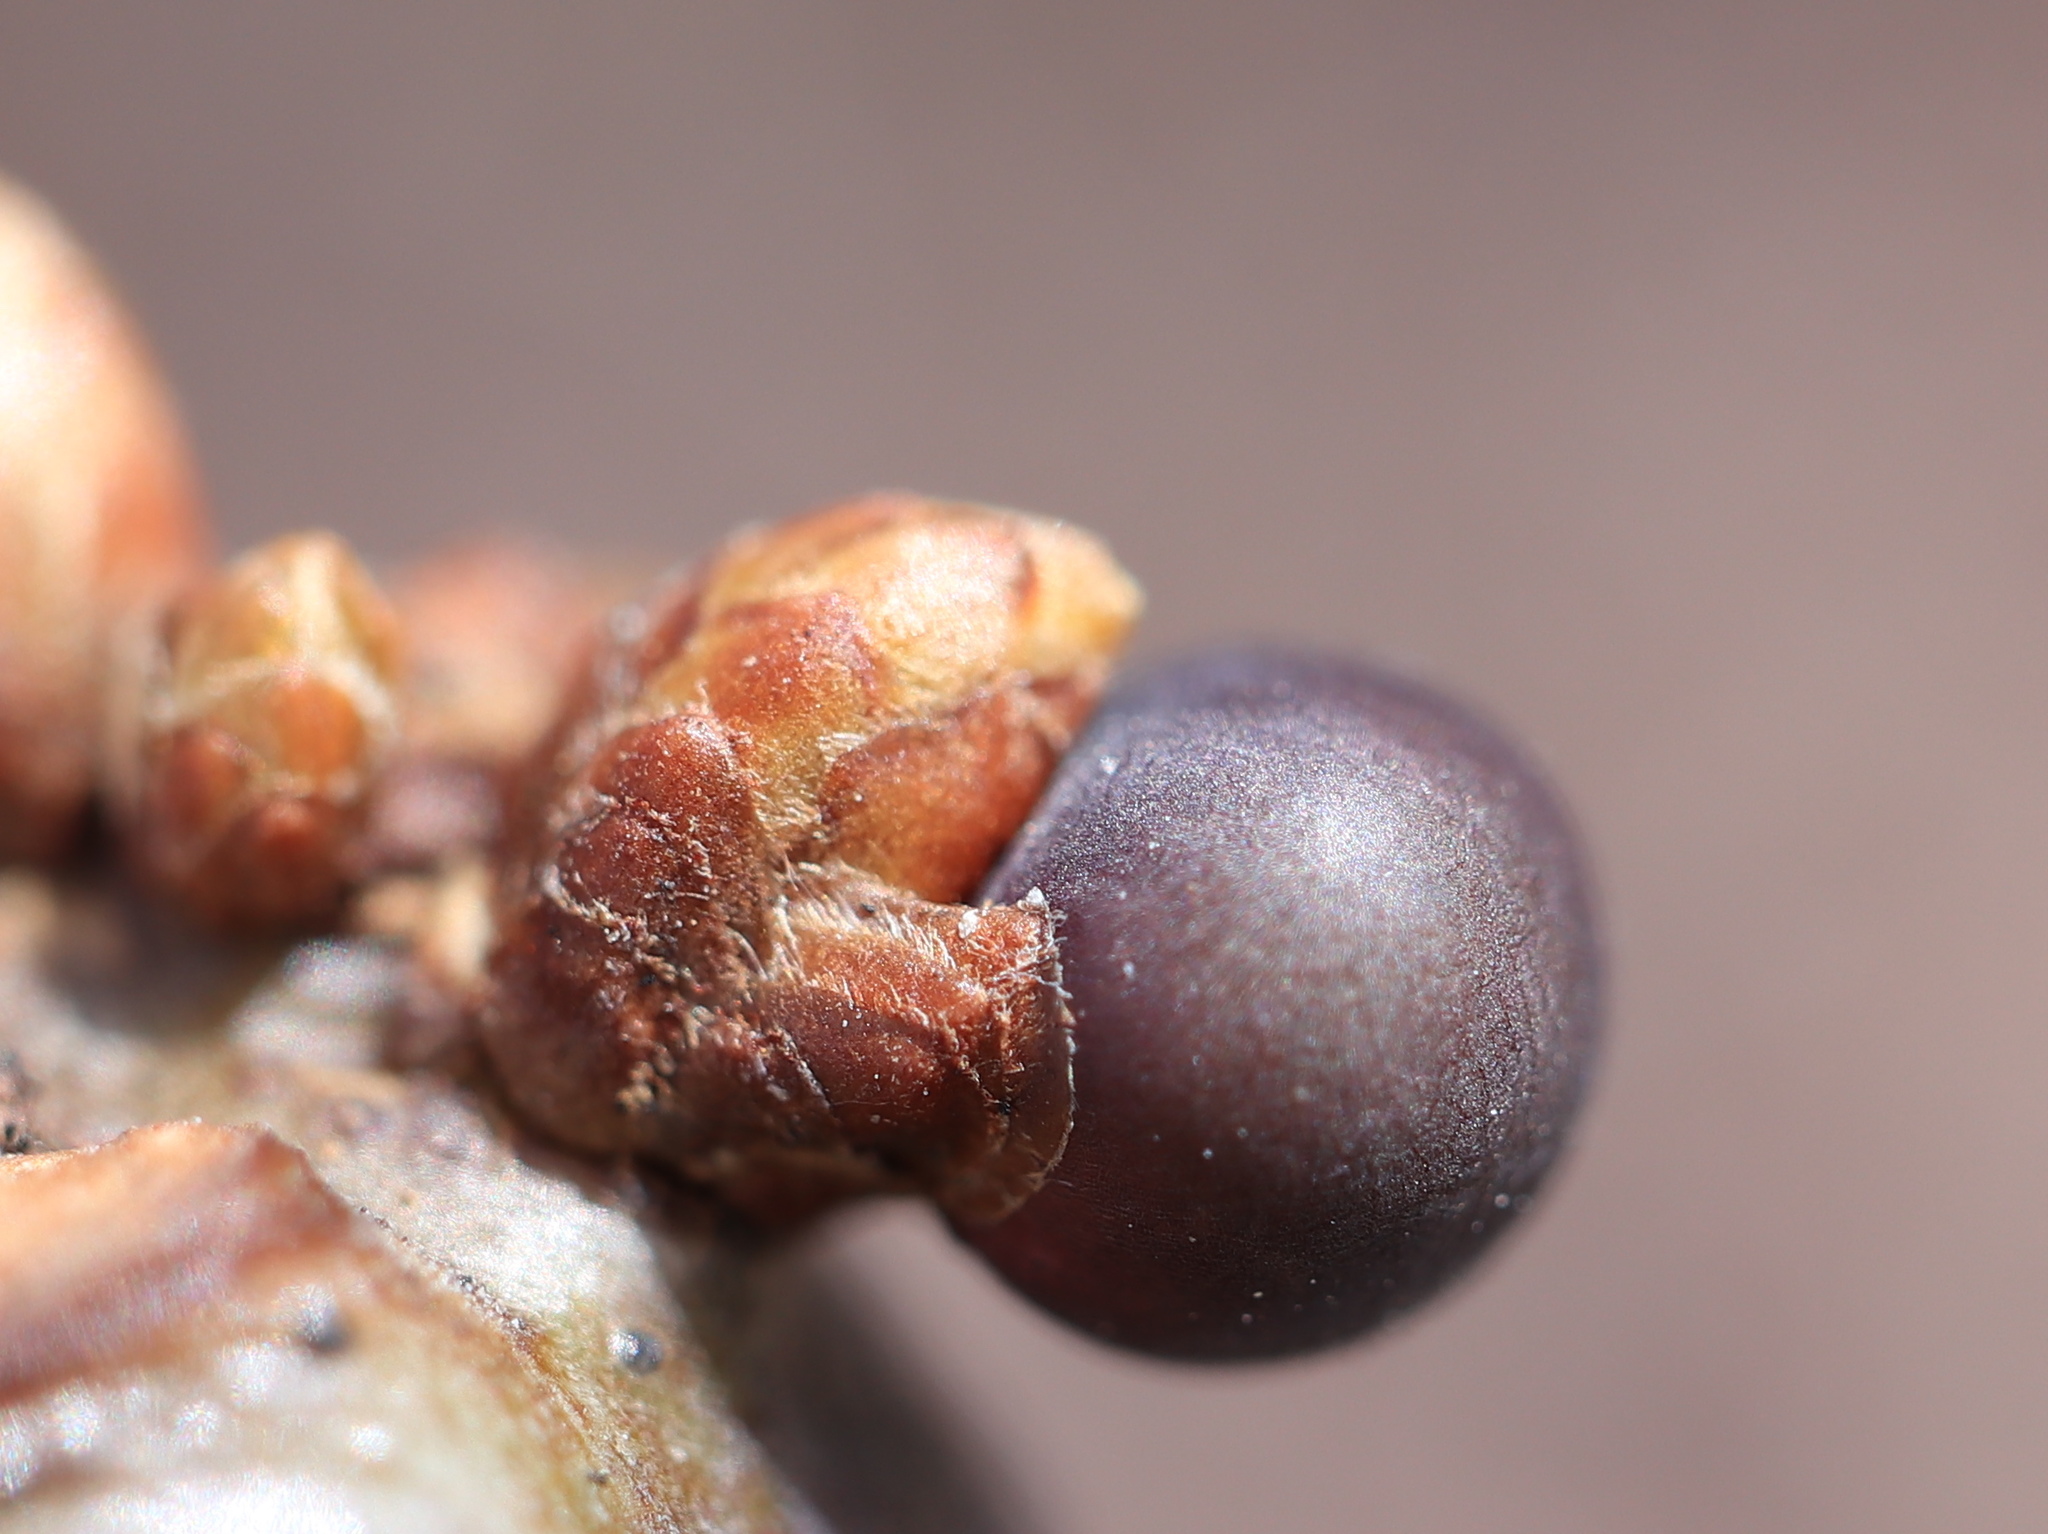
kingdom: Animalia
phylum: Arthropoda
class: Insecta
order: Hymenoptera
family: Cynipidae
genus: Neuroterus
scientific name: Neuroterus
